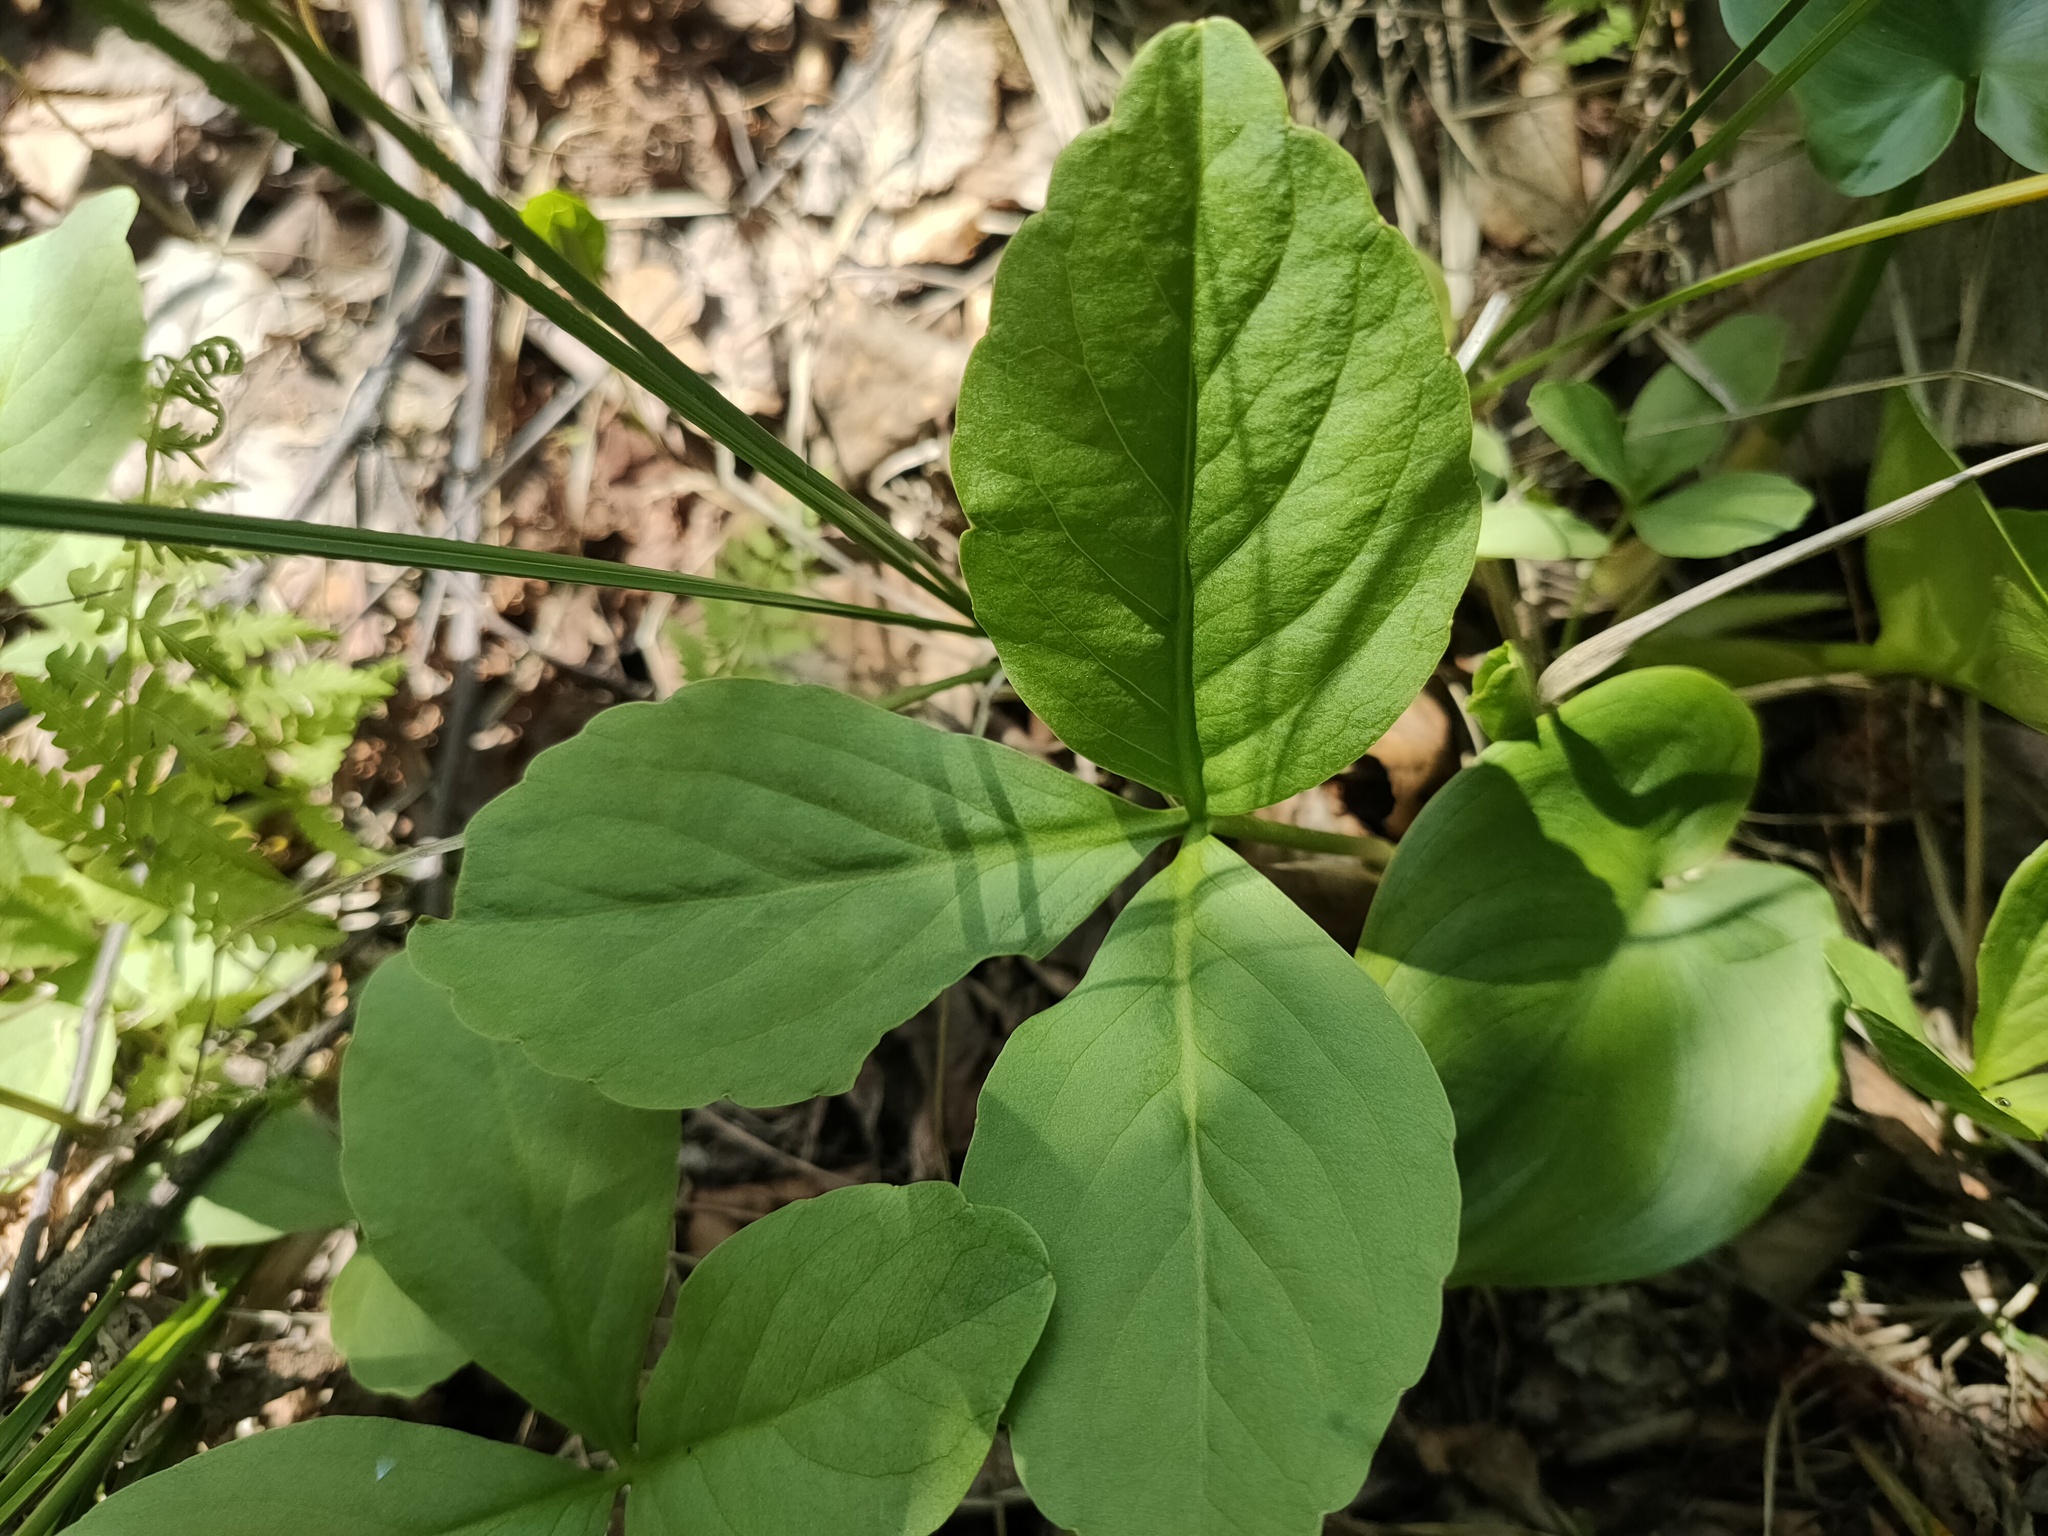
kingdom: Plantae
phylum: Tracheophyta
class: Magnoliopsida
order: Asterales
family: Menyanthaceae
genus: Menyanthes
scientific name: Menyanthes trifoliata
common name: Bogbean
